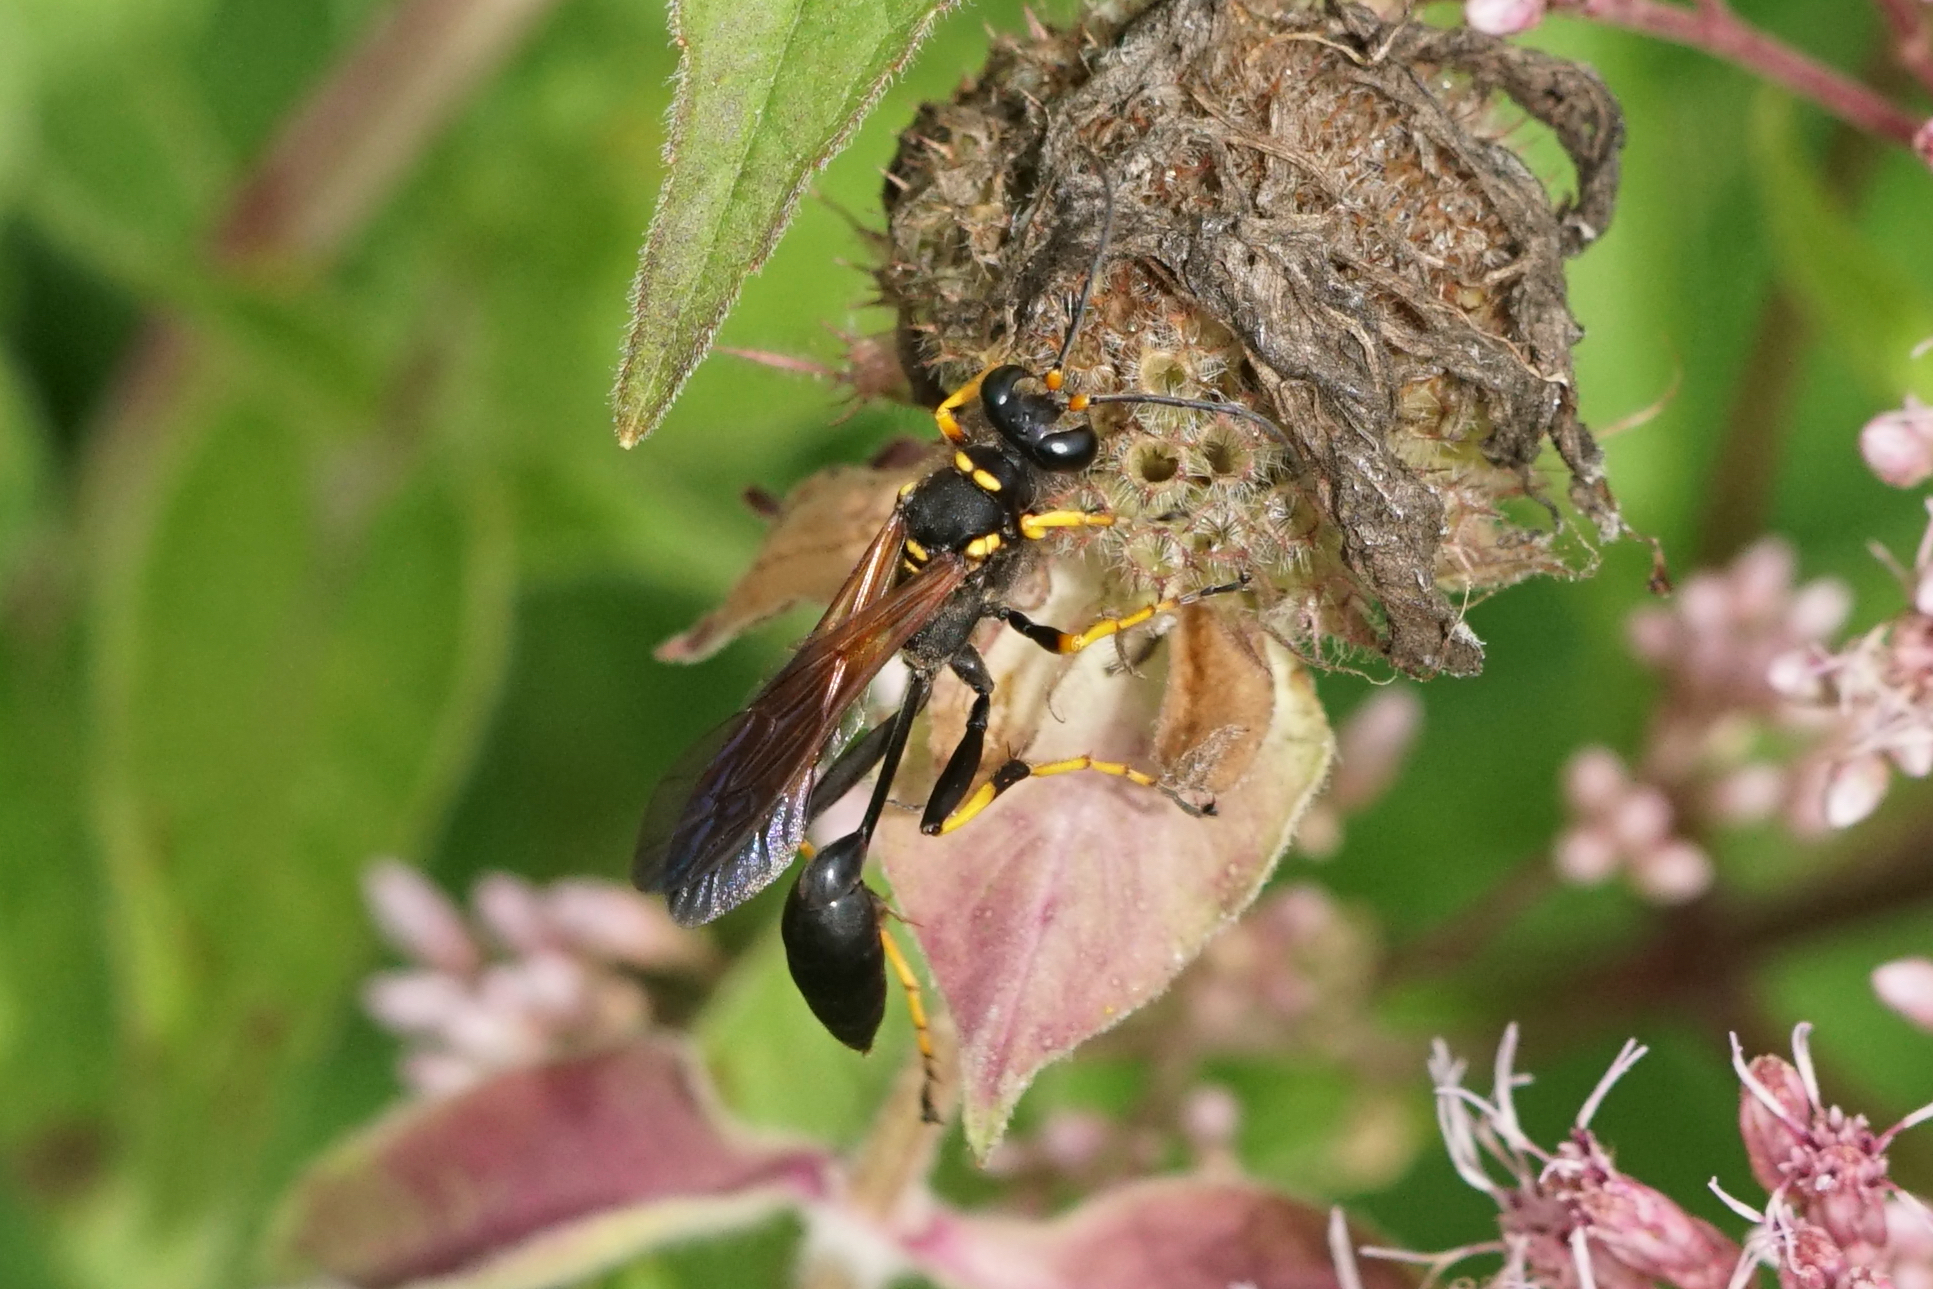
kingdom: Animalia
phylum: Arthropoda
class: Insecta
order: Hymenoptera
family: Sphecidae
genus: Sceliphron
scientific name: Sceliphron caementarium
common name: Mud dauber
